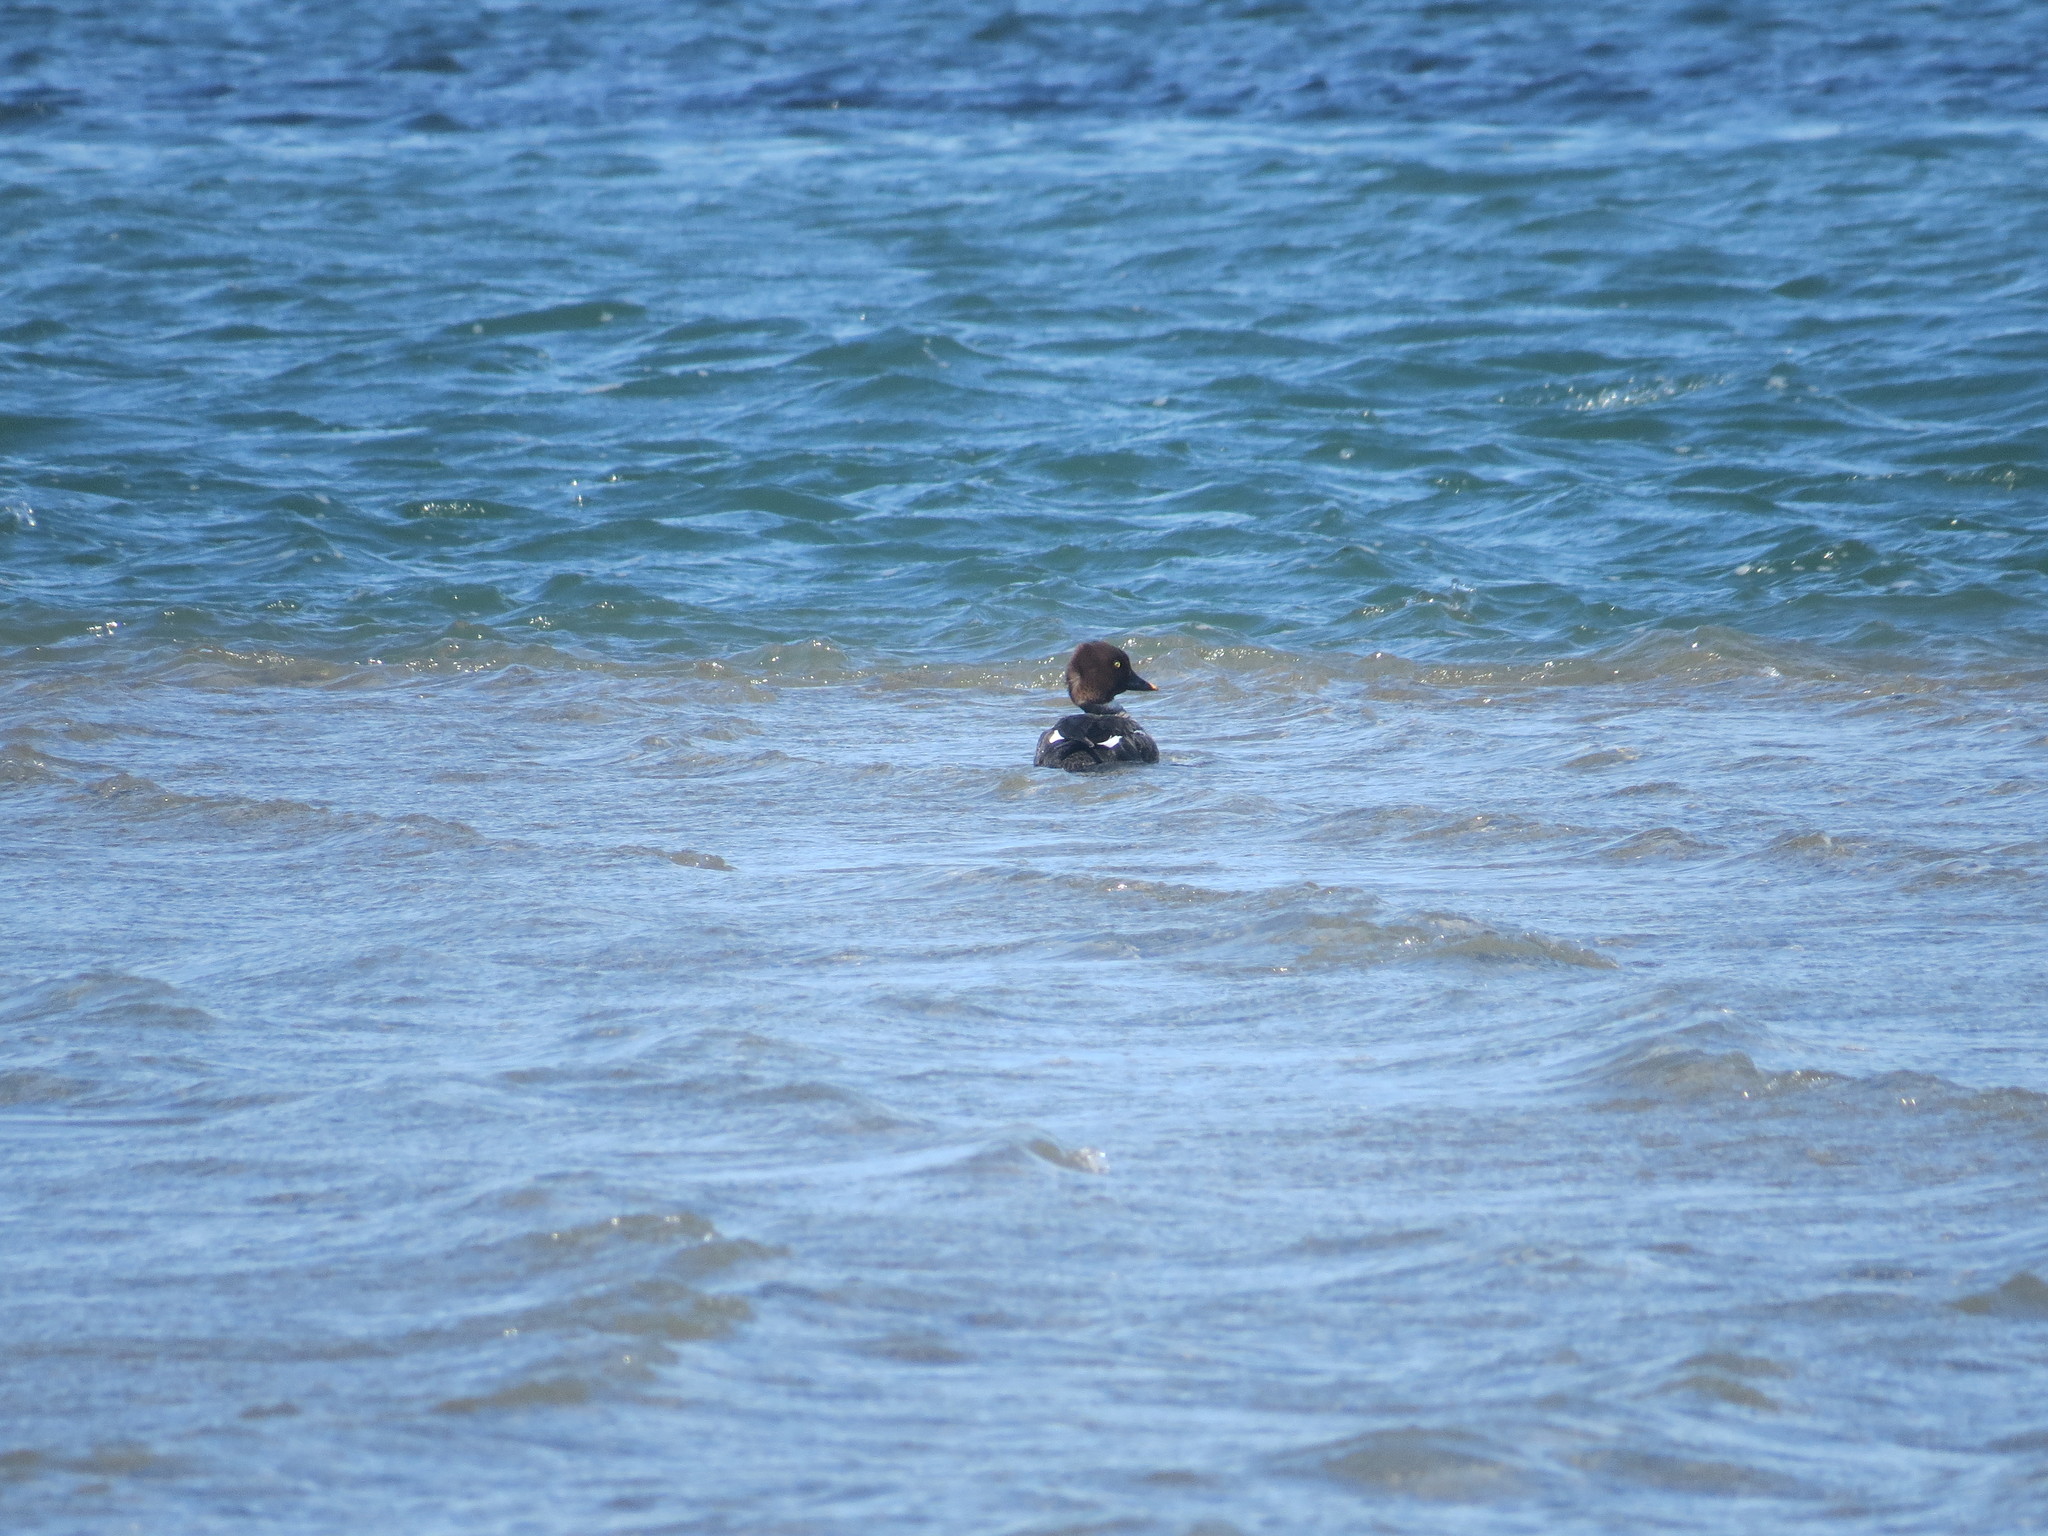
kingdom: Animalia
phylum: Chordata
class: Aves
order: Anseriformes
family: Anatidae
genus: Bucephala
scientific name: Bucephala clangula
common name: Common goldeneye
